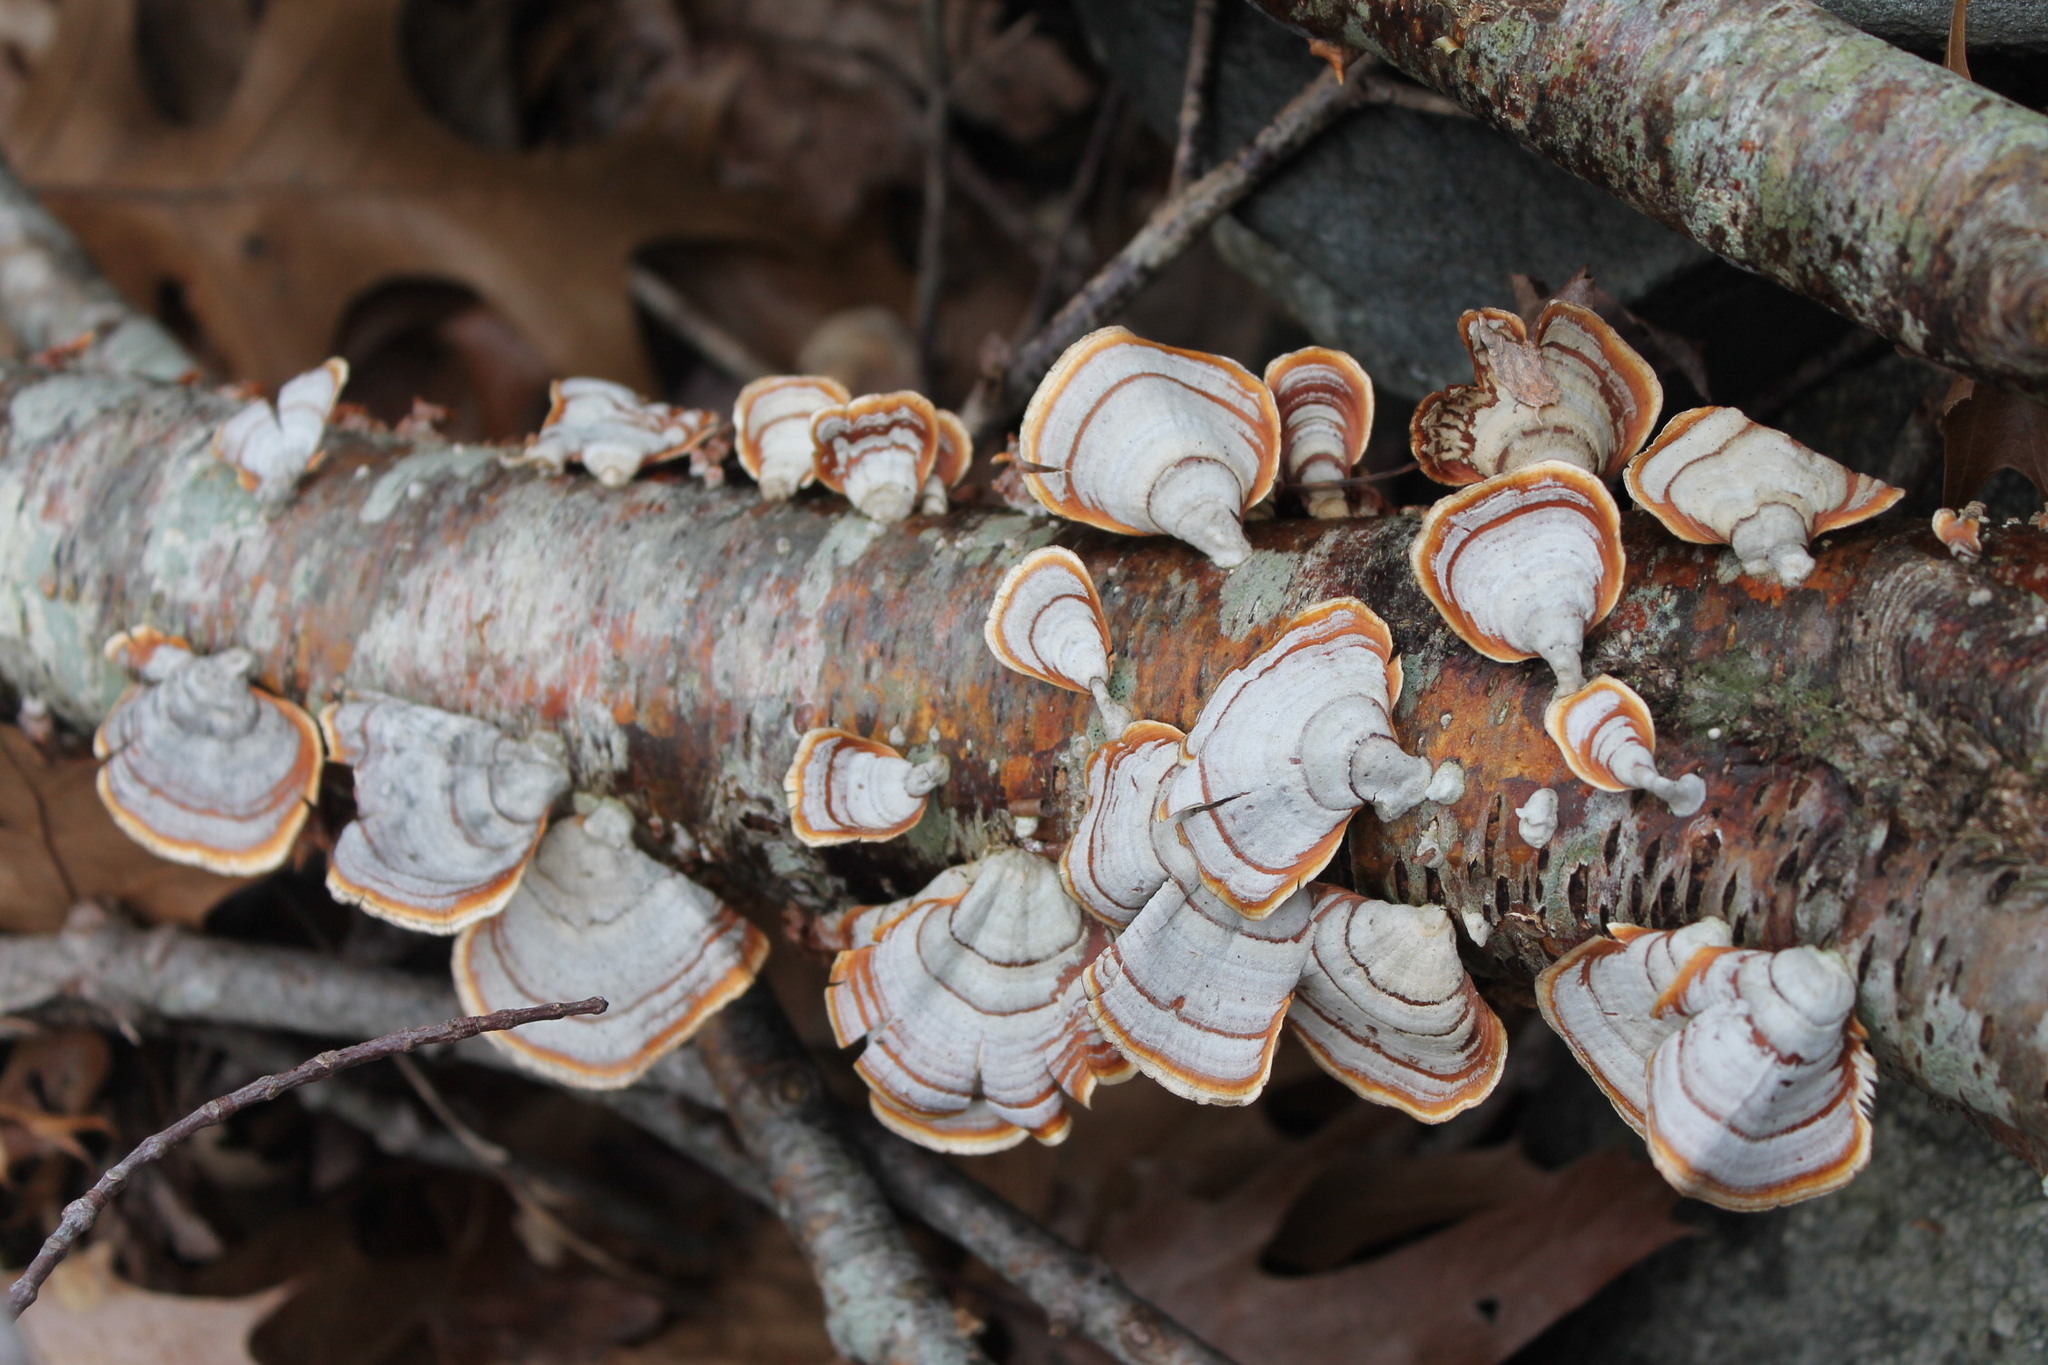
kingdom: Fungi
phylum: Basidiomycota
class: Agaricomycetes
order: Russulales
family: Stereaceae
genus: Stereum
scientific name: Stereum lobatum
